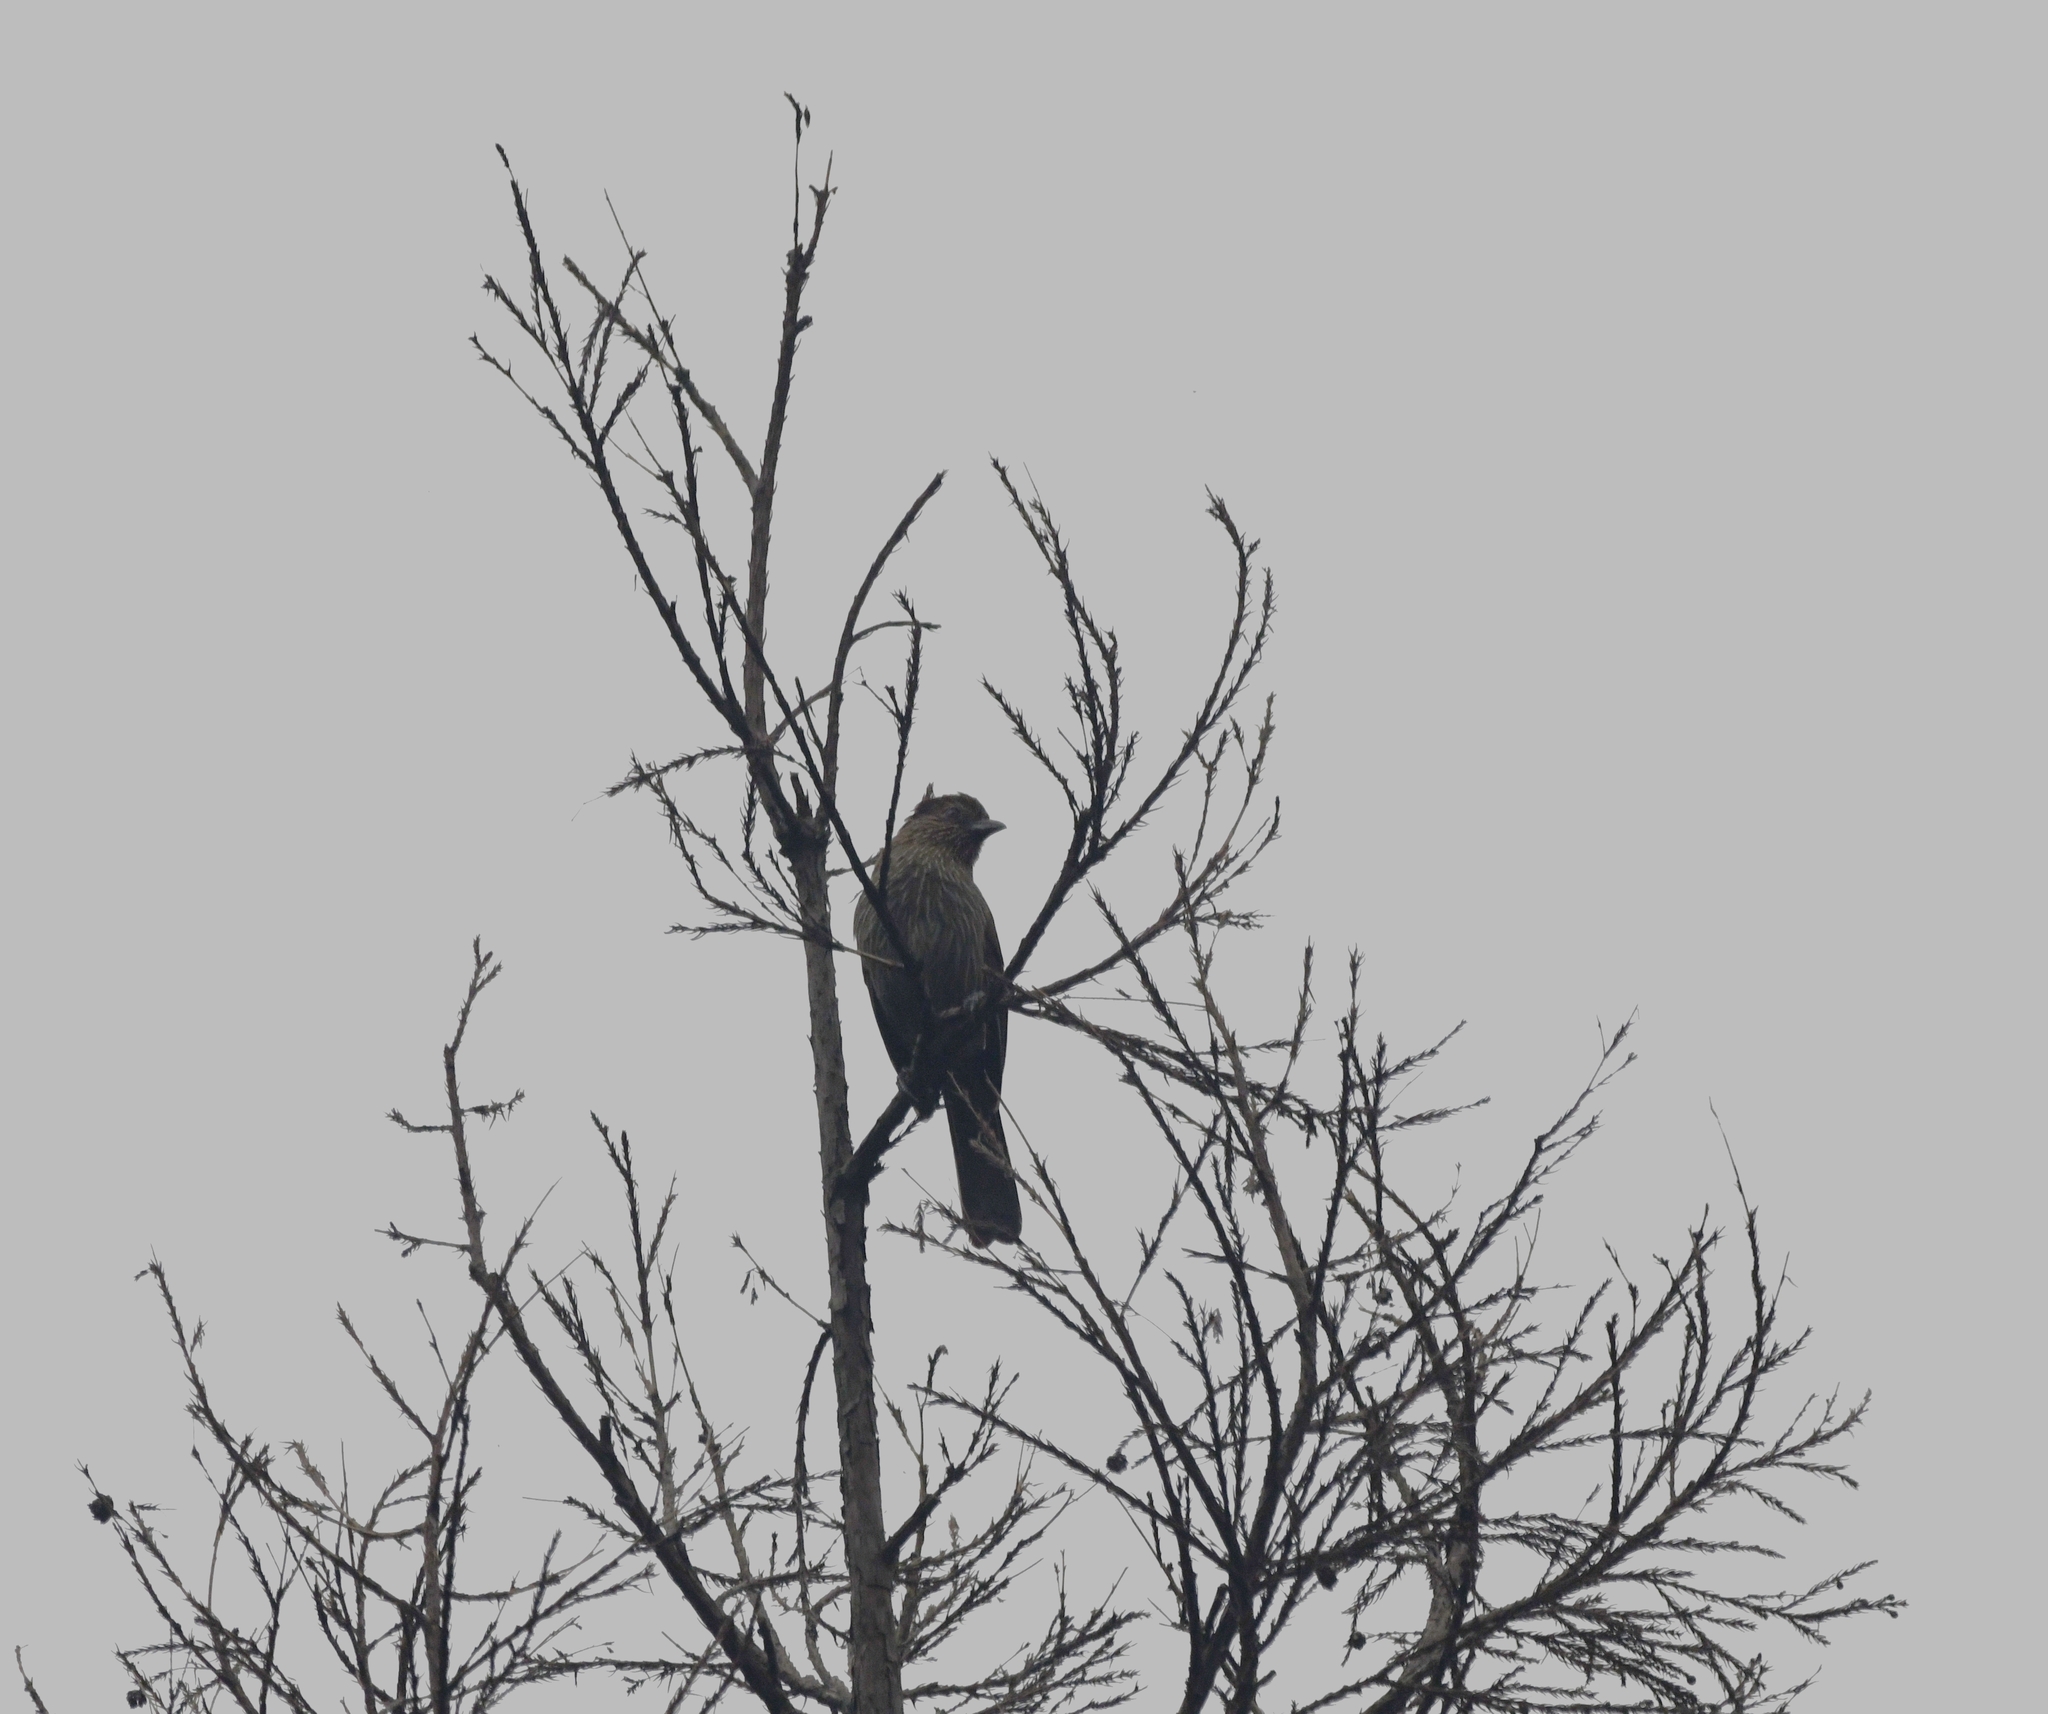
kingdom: Animalia
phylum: Chordata
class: Aves
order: Passeriformes
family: Leiothrichidae
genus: Garrulax
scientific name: Garrulax striatus
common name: Striated laughingthrush
